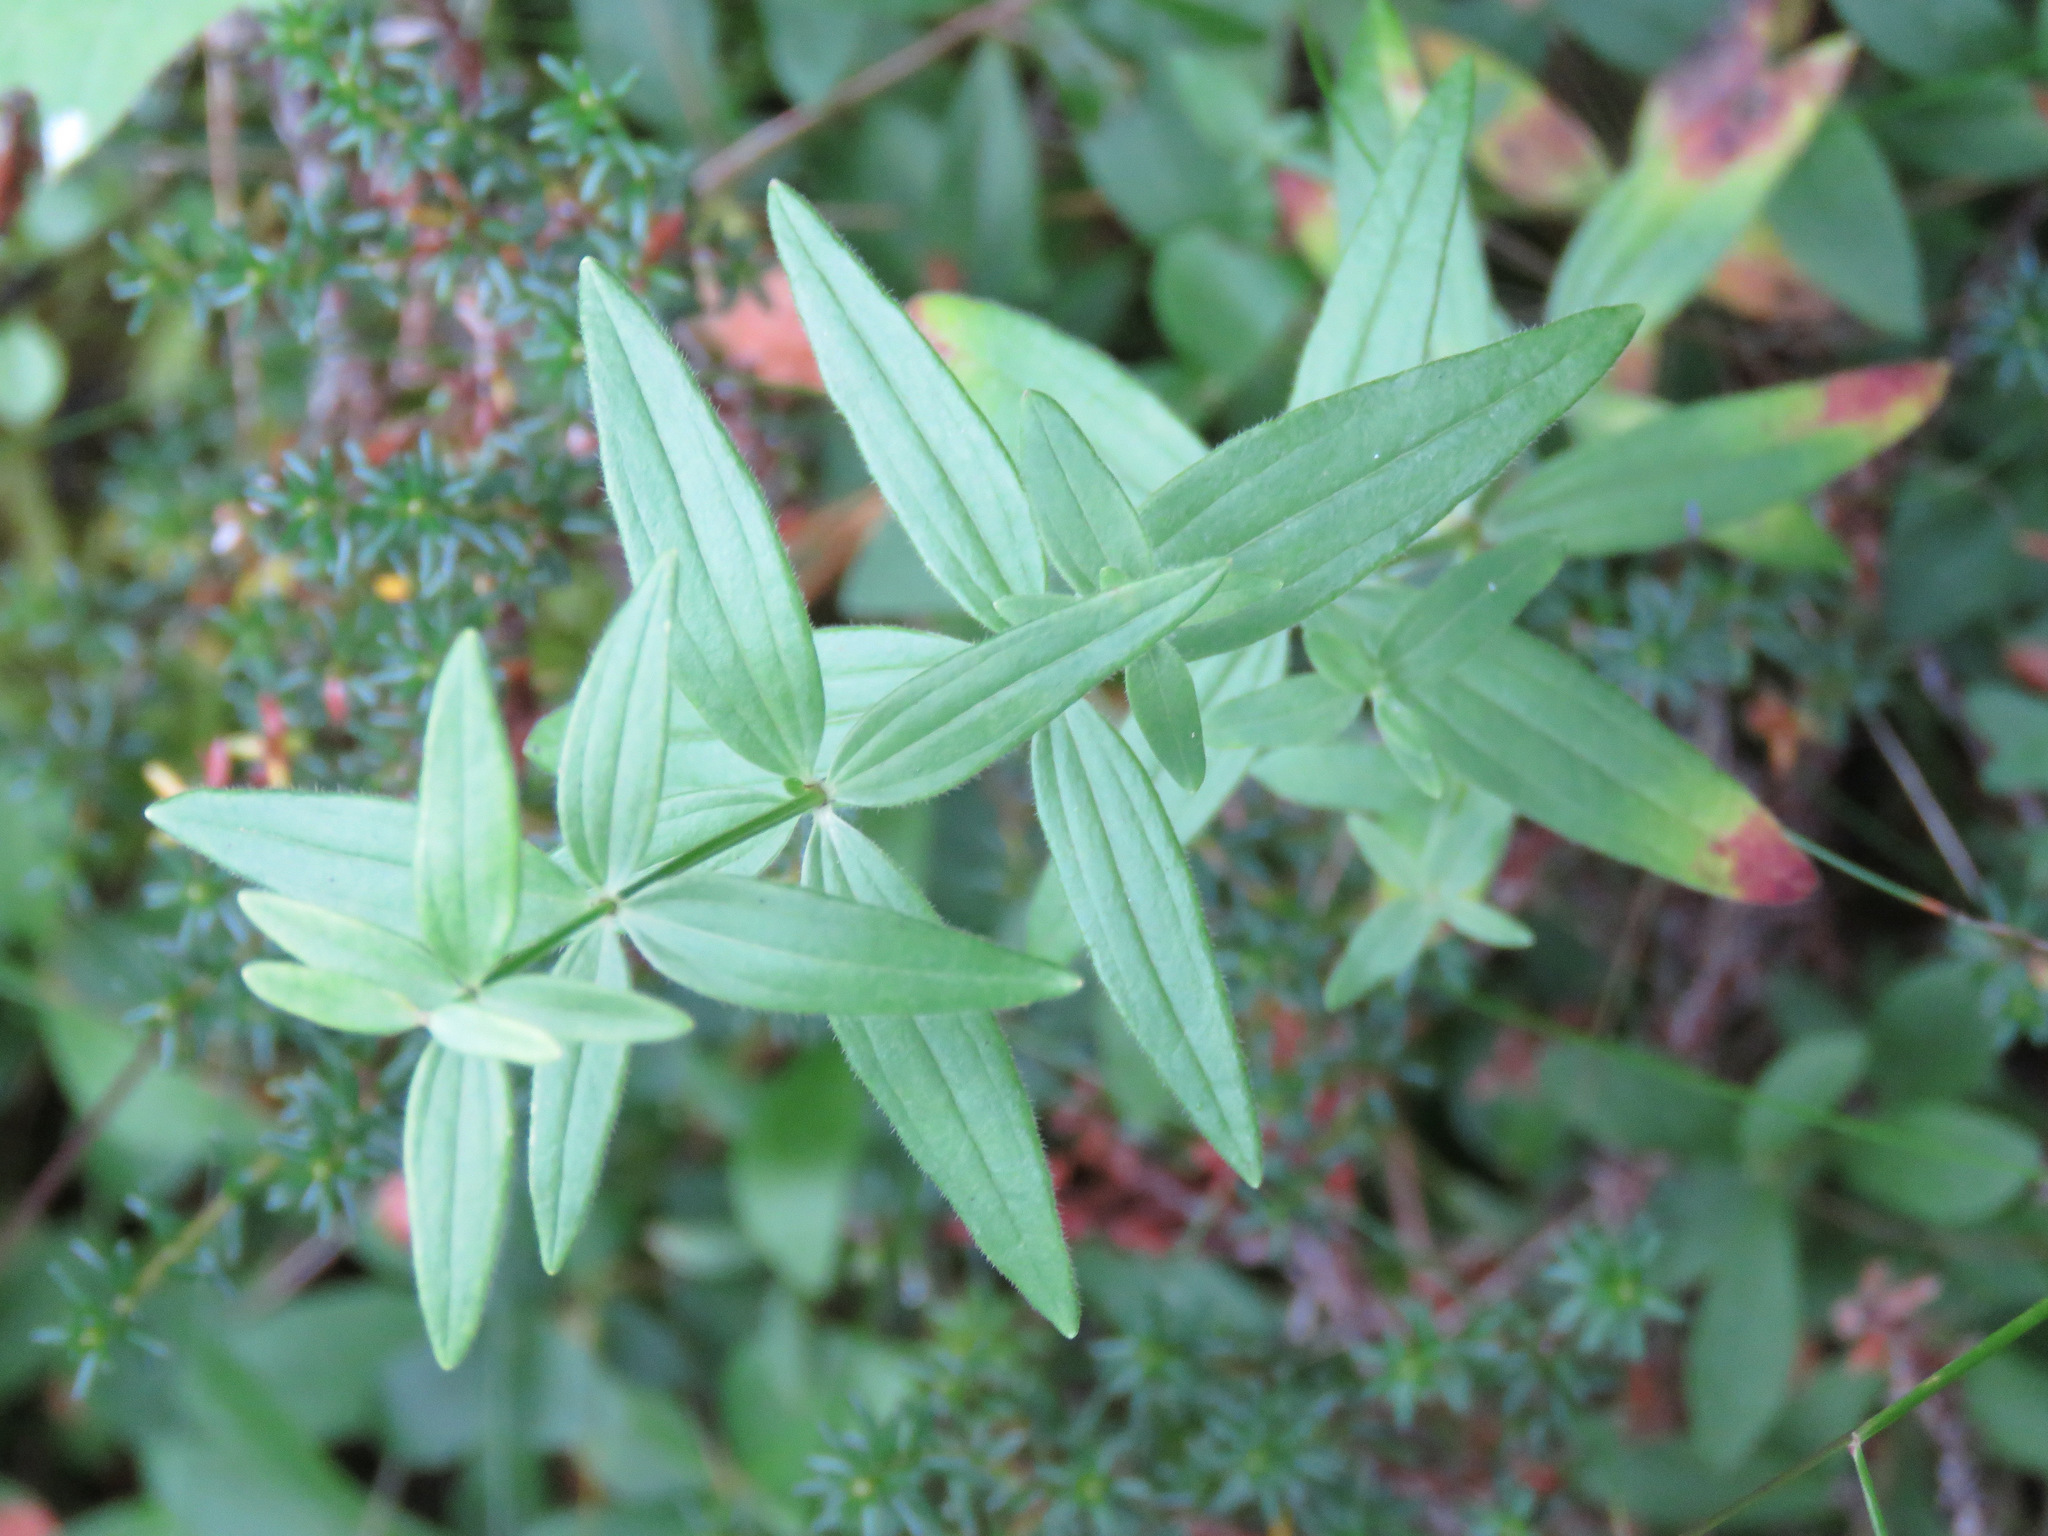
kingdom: Plantae
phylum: Tracheophyta
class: Magnoliopsida
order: Gentianales
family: Rubiaceae
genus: Galium
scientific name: Galium boreale
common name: Northern bedstraw
